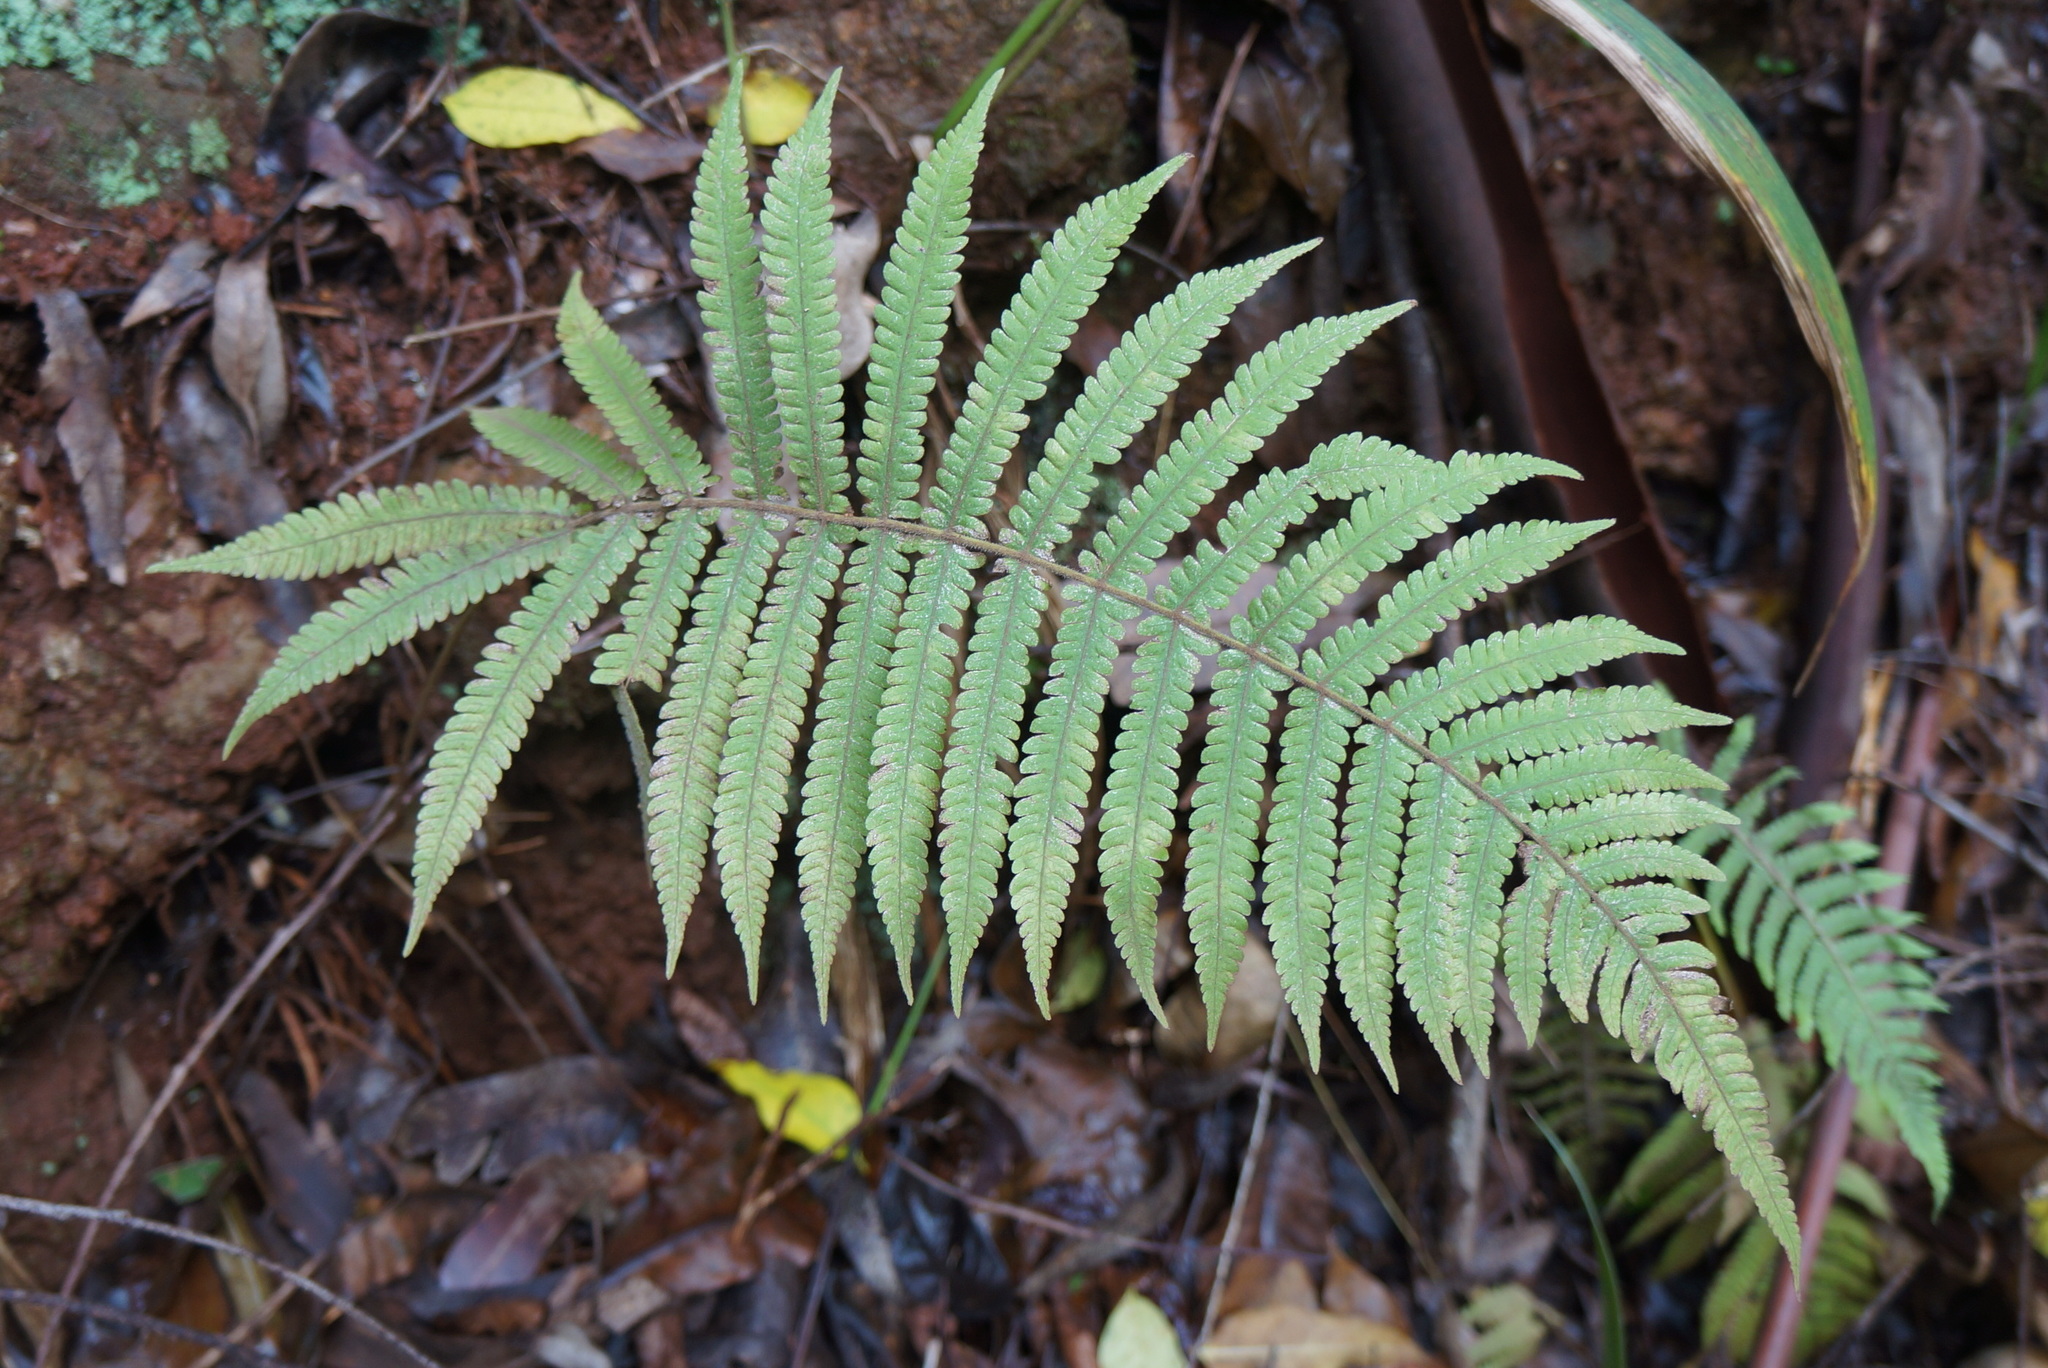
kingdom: Plantae
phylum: Tracheophyta
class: Polypodiopsida
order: Polypodiales
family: Thelypteridaceae
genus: Christella
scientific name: Christella parasitica
